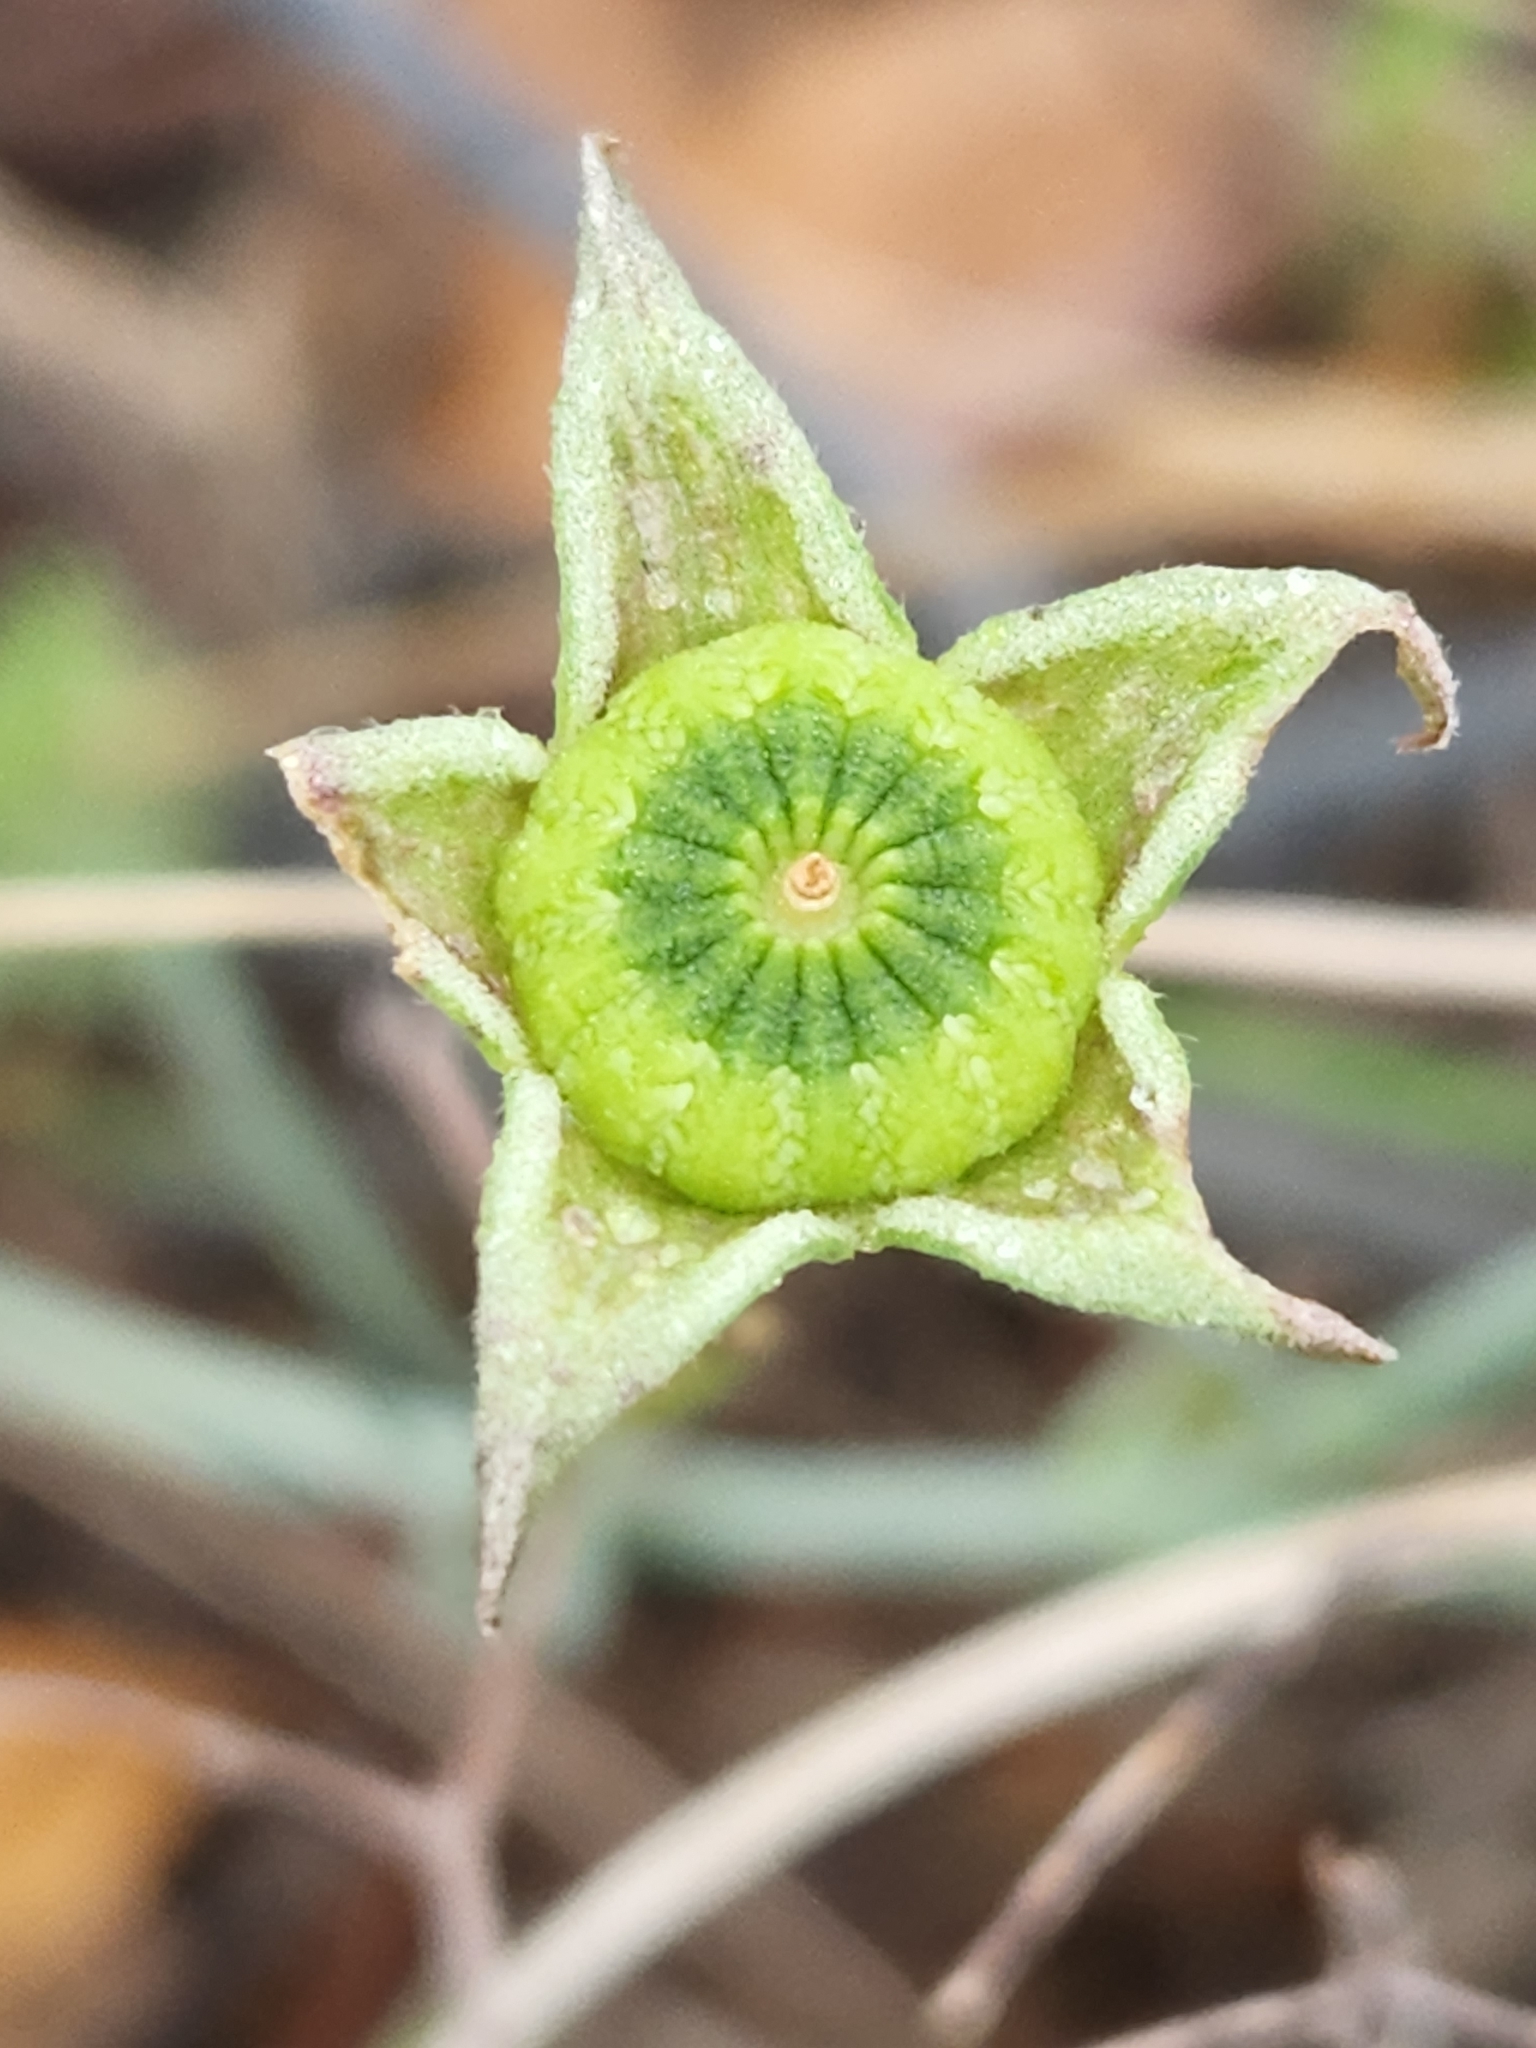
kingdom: Plantae
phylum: Tracheophyta
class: Magnoliopsida
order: Malvales
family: Malvaceae
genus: Callirhoe
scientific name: Callirhoe pedata
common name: Finger poppy-mallow
